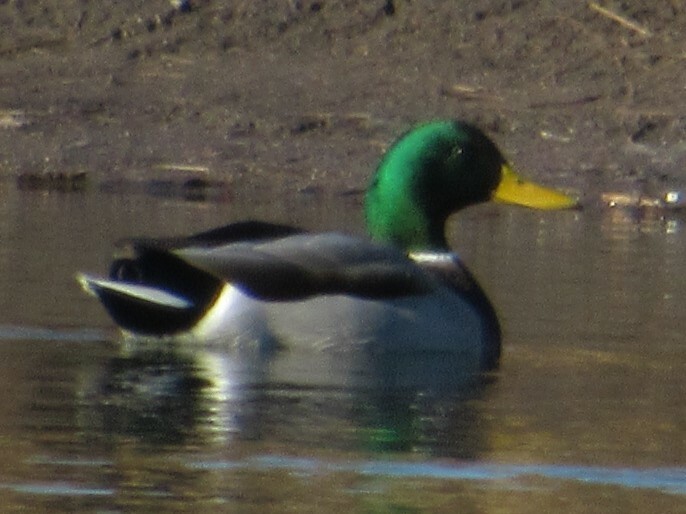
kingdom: Animalia
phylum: Chordata
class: Aves
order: Anseriformes
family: Anatidae
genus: Anas
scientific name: Anas platyrhynchos
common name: Mallard
